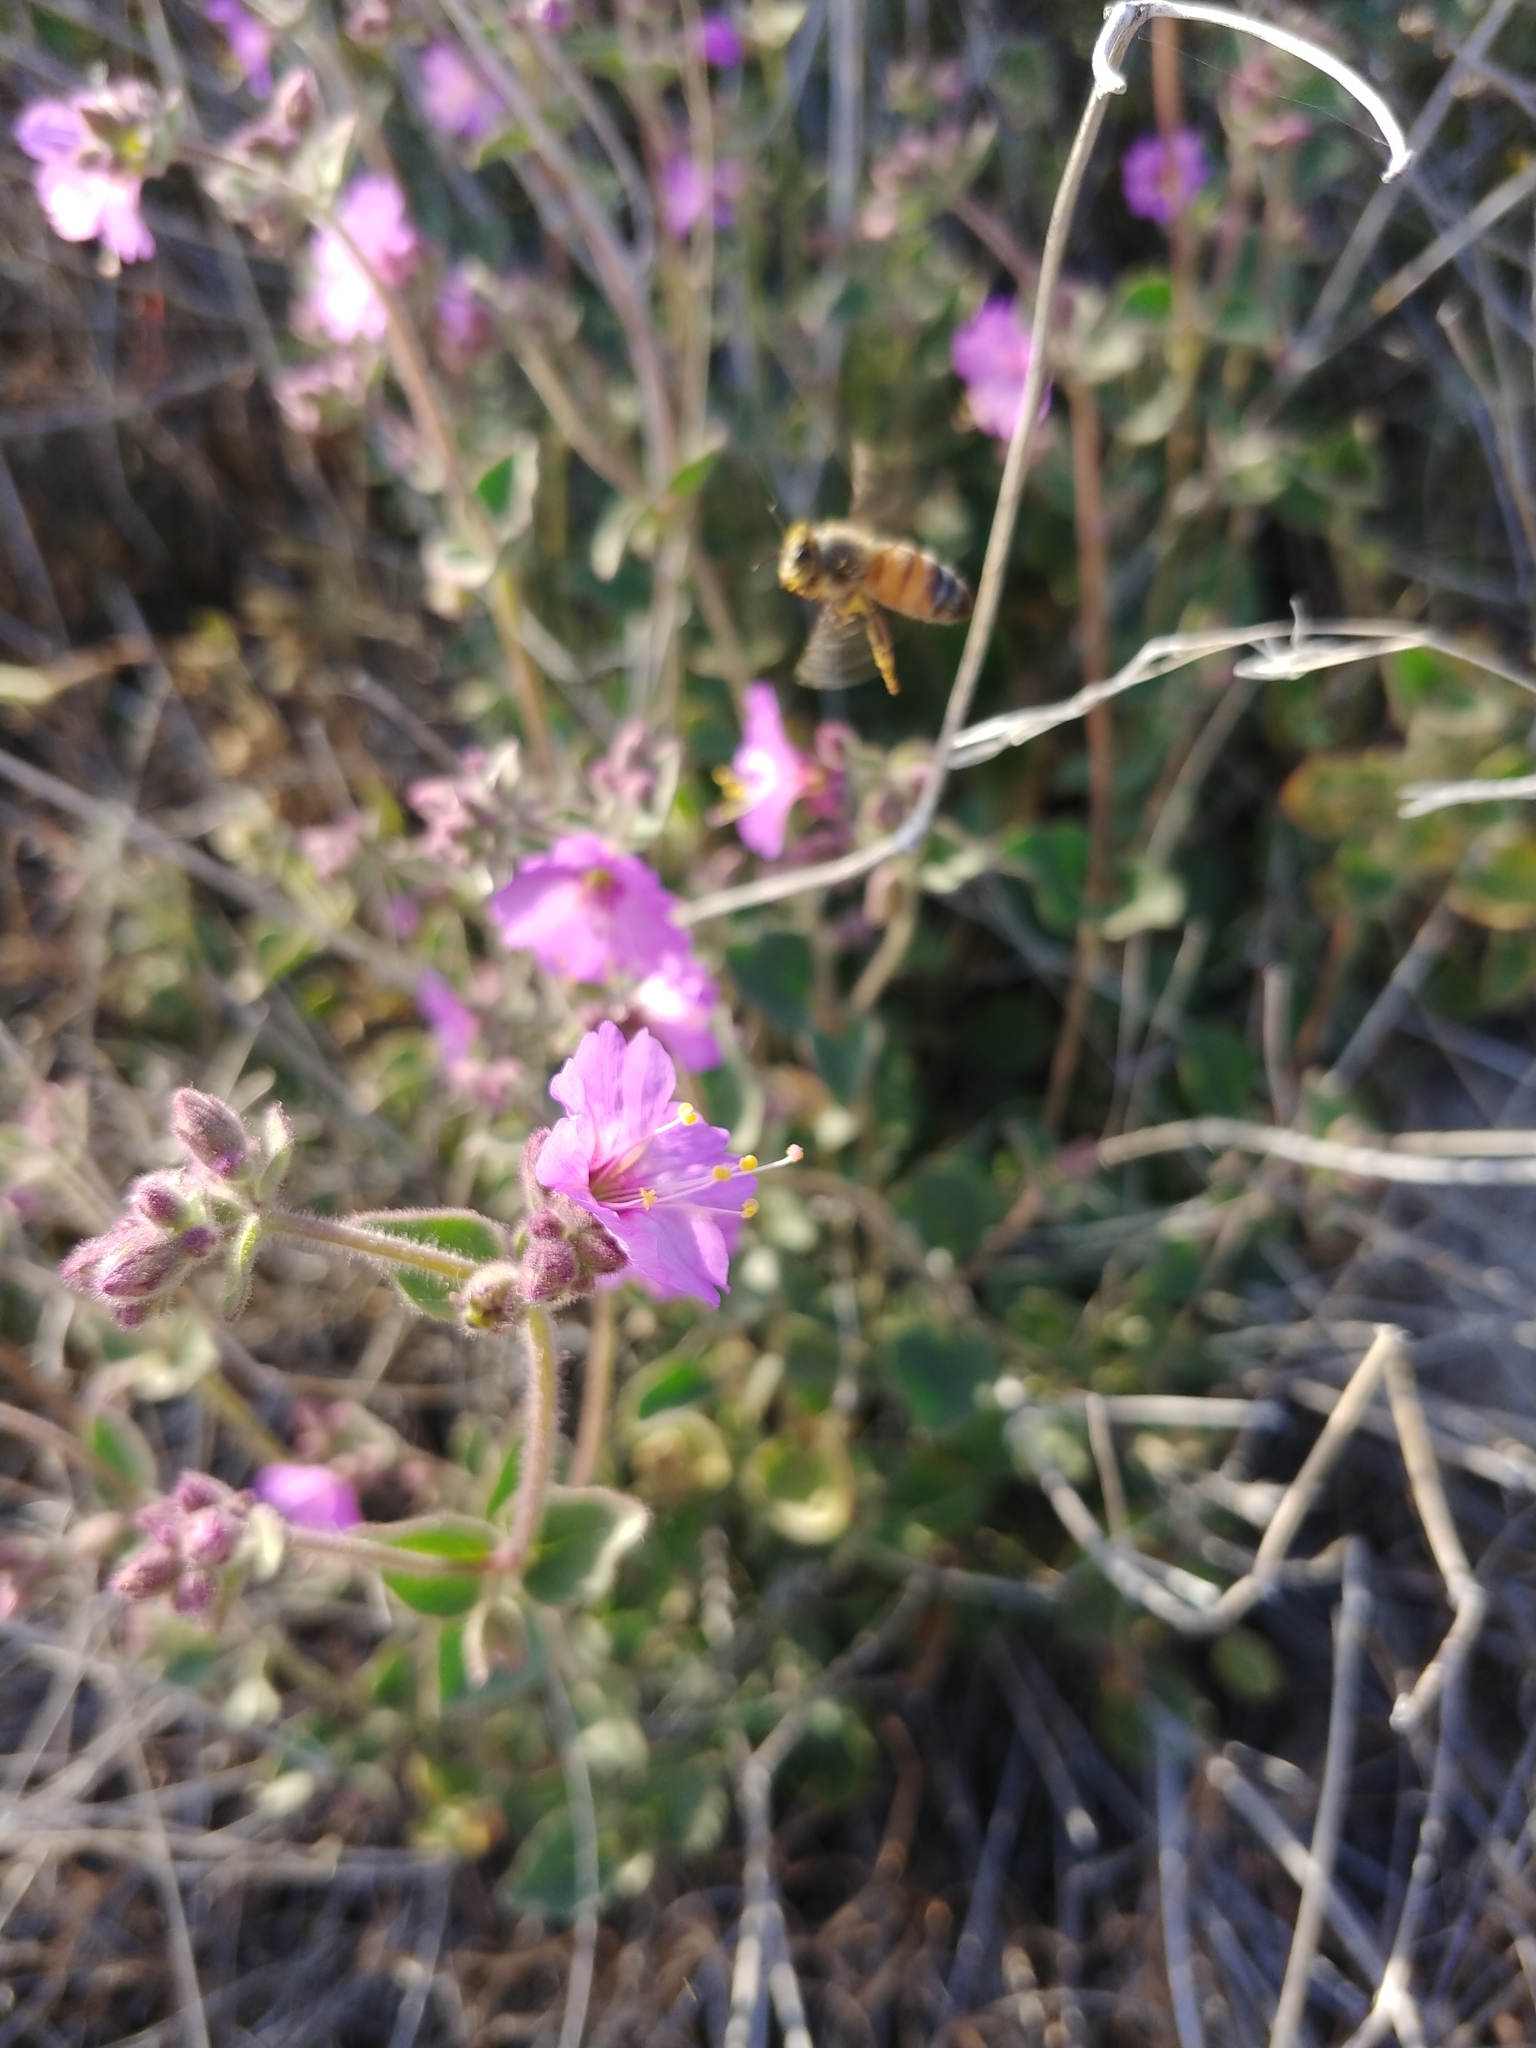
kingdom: Plantae
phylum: Tracheophyta
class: Magnoliopsida
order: Caryophyllales
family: Nyctaginaceae
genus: Mirabilis
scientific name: Mirabilis laevis
